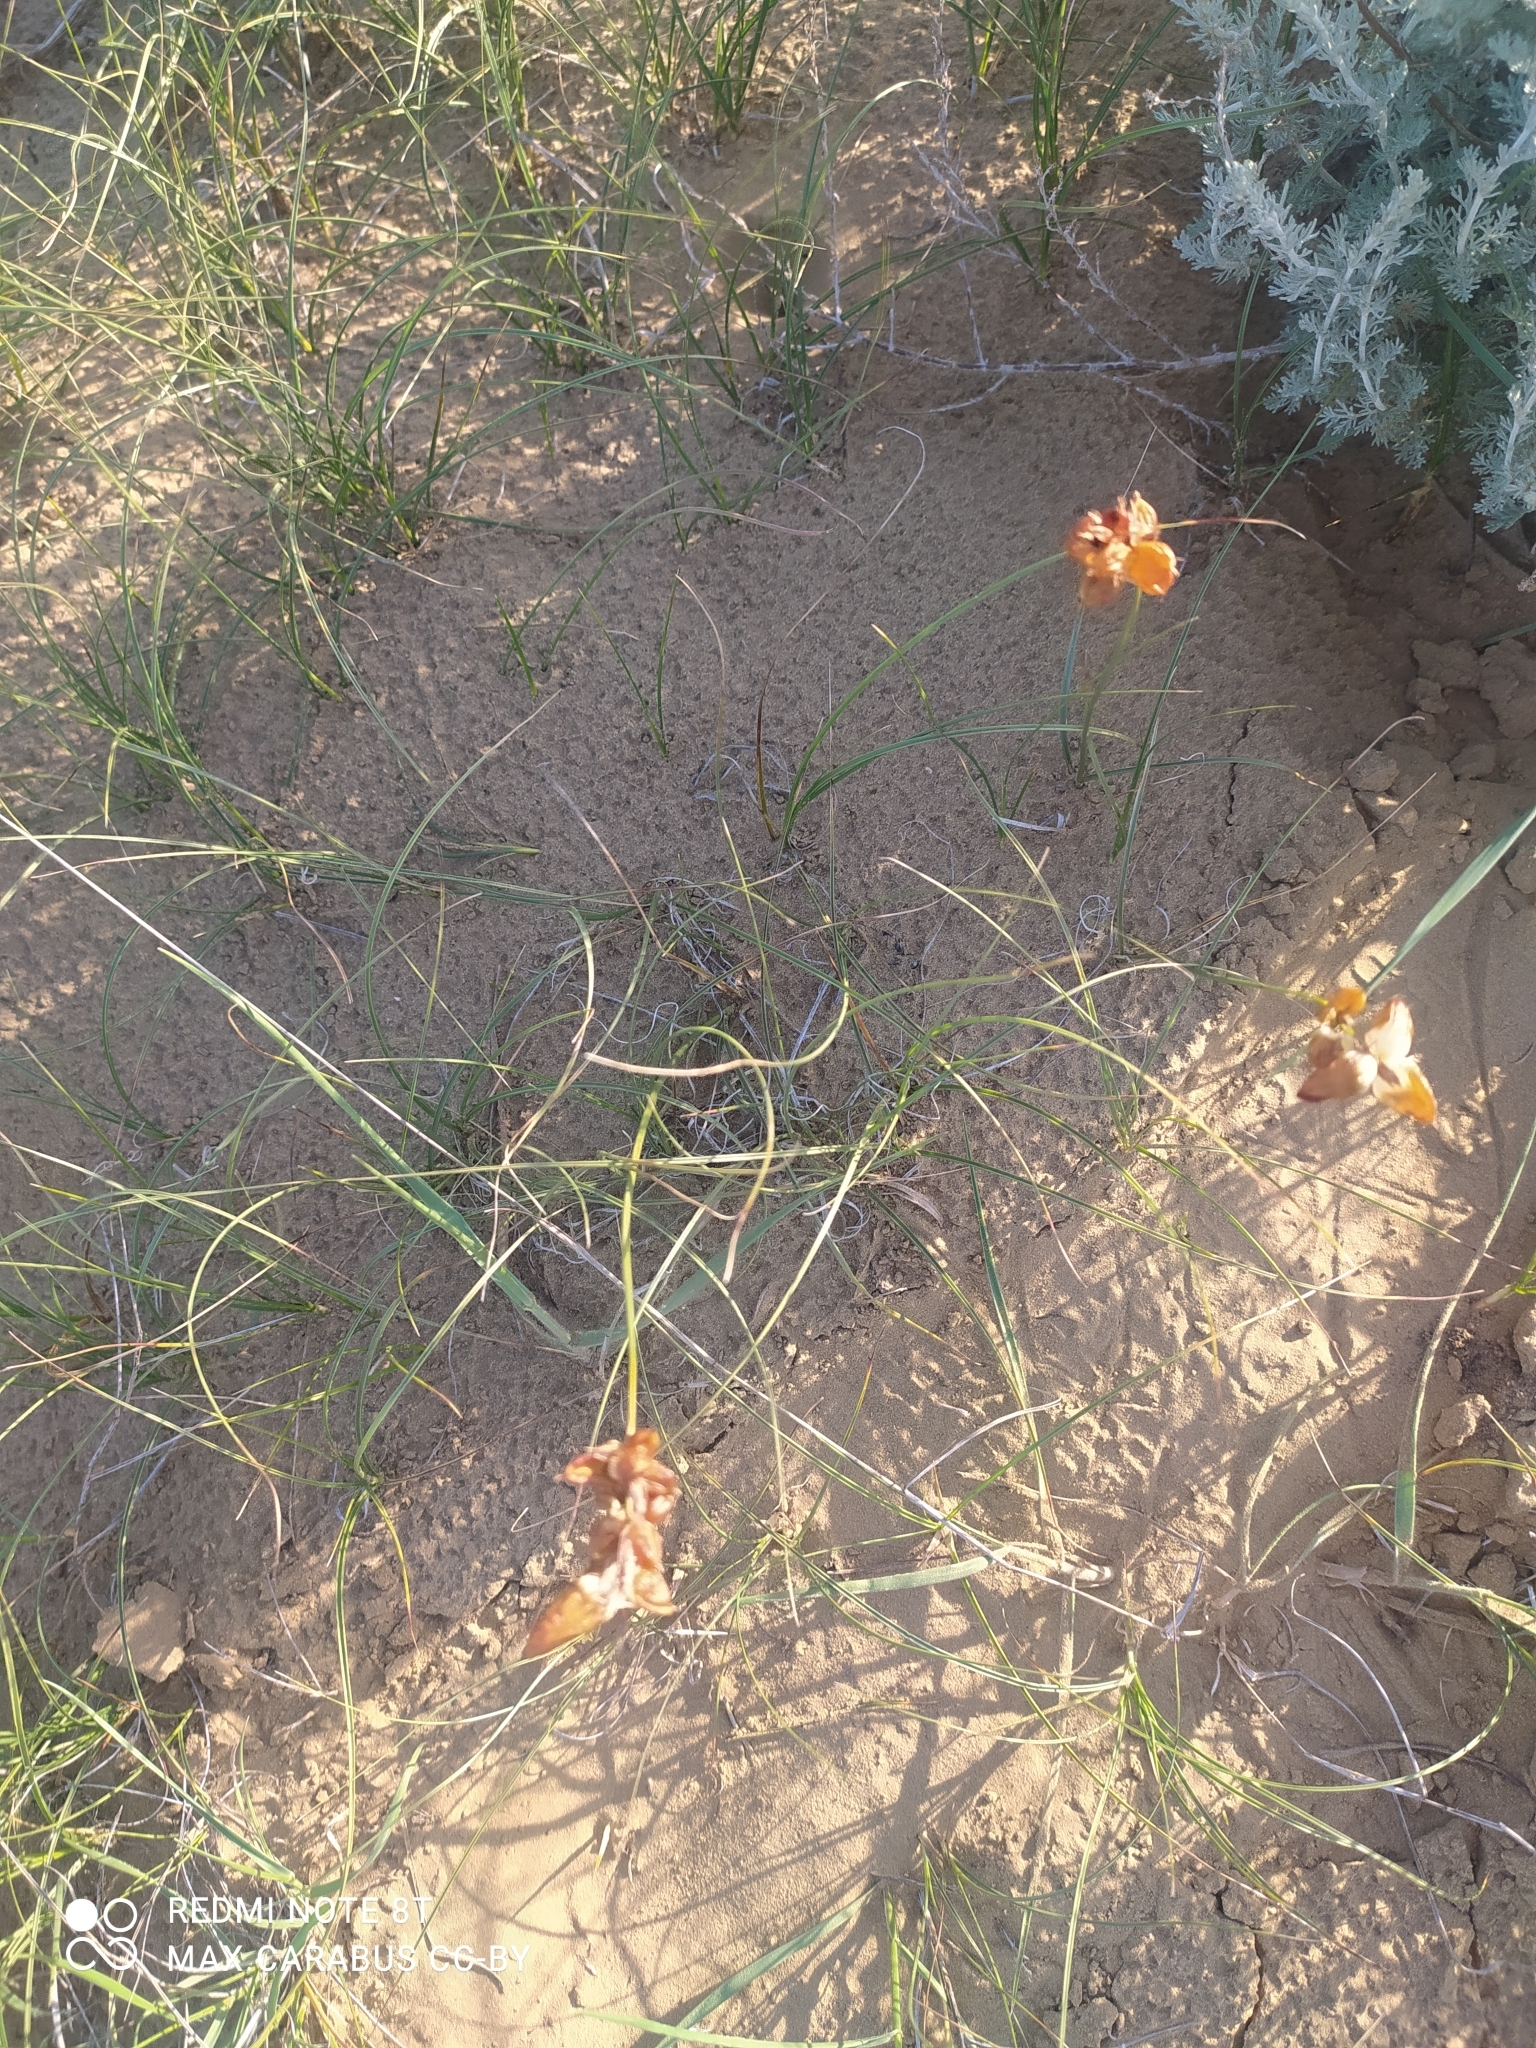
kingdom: Plantae
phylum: Tracheophyta
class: Liliopsida
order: Poales
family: Cyperaceae
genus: Carex
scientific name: Carex physodes
